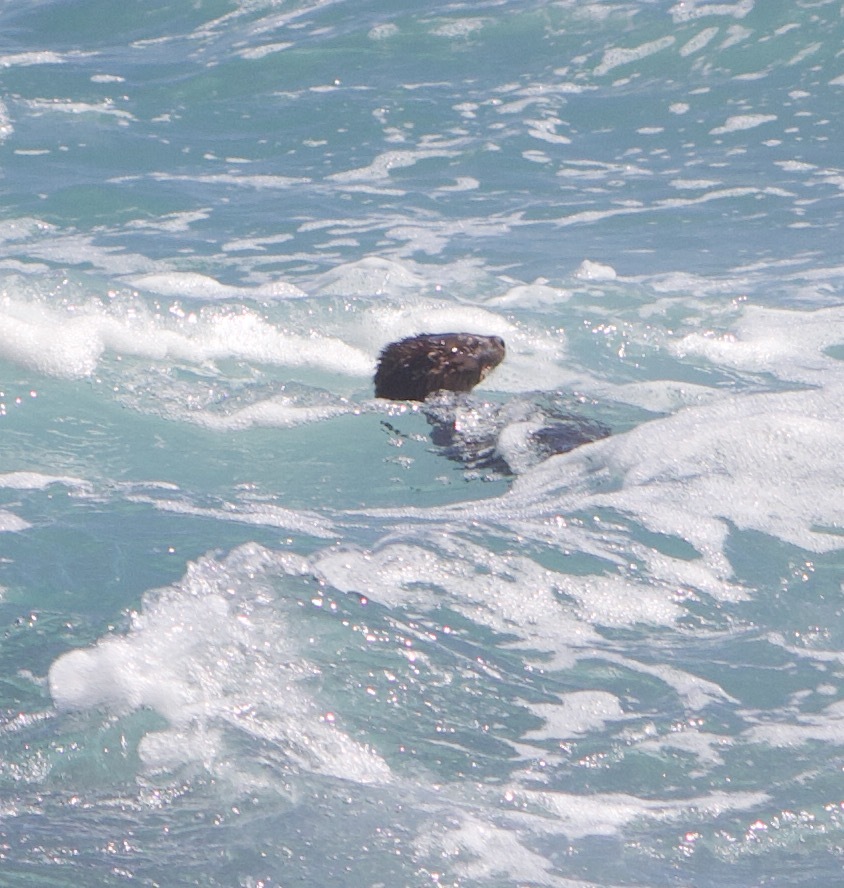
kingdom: Animalia
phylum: Chordata
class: Mammalia
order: Carnivora
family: Mustelidae
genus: Lontra
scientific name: Lontra felina
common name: Marine otter
